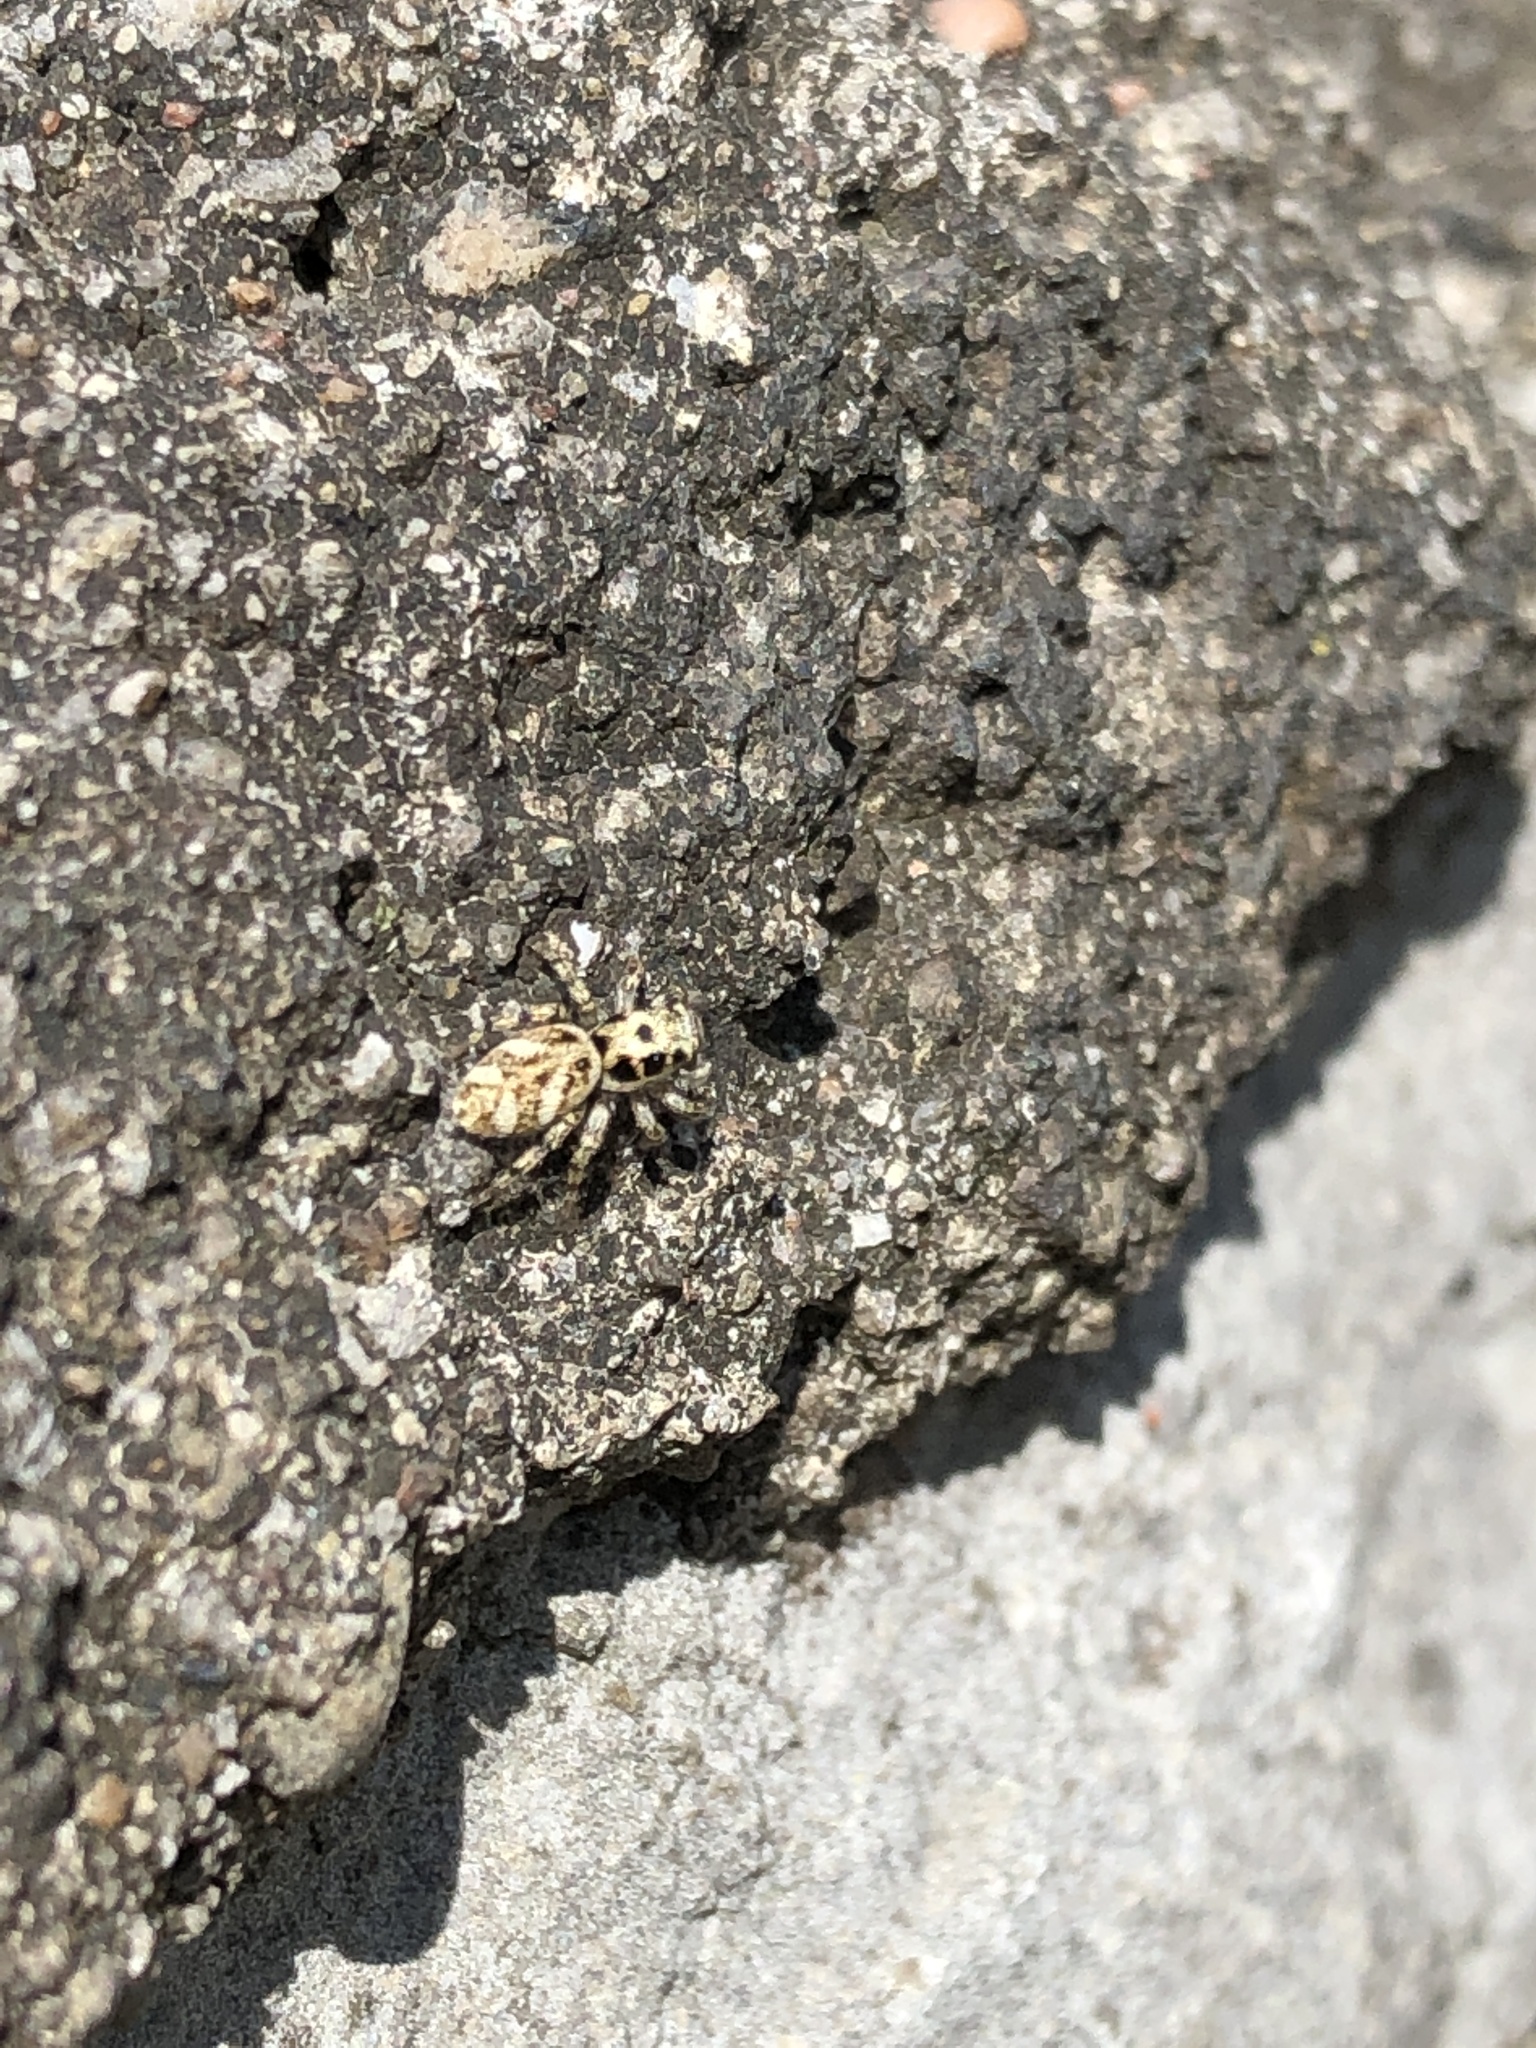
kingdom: Animalia
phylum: Arthropoda
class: Arachnida
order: Araneae
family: Salticidae
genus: Salticus
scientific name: Salticus scenicus
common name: Zebra jumper
